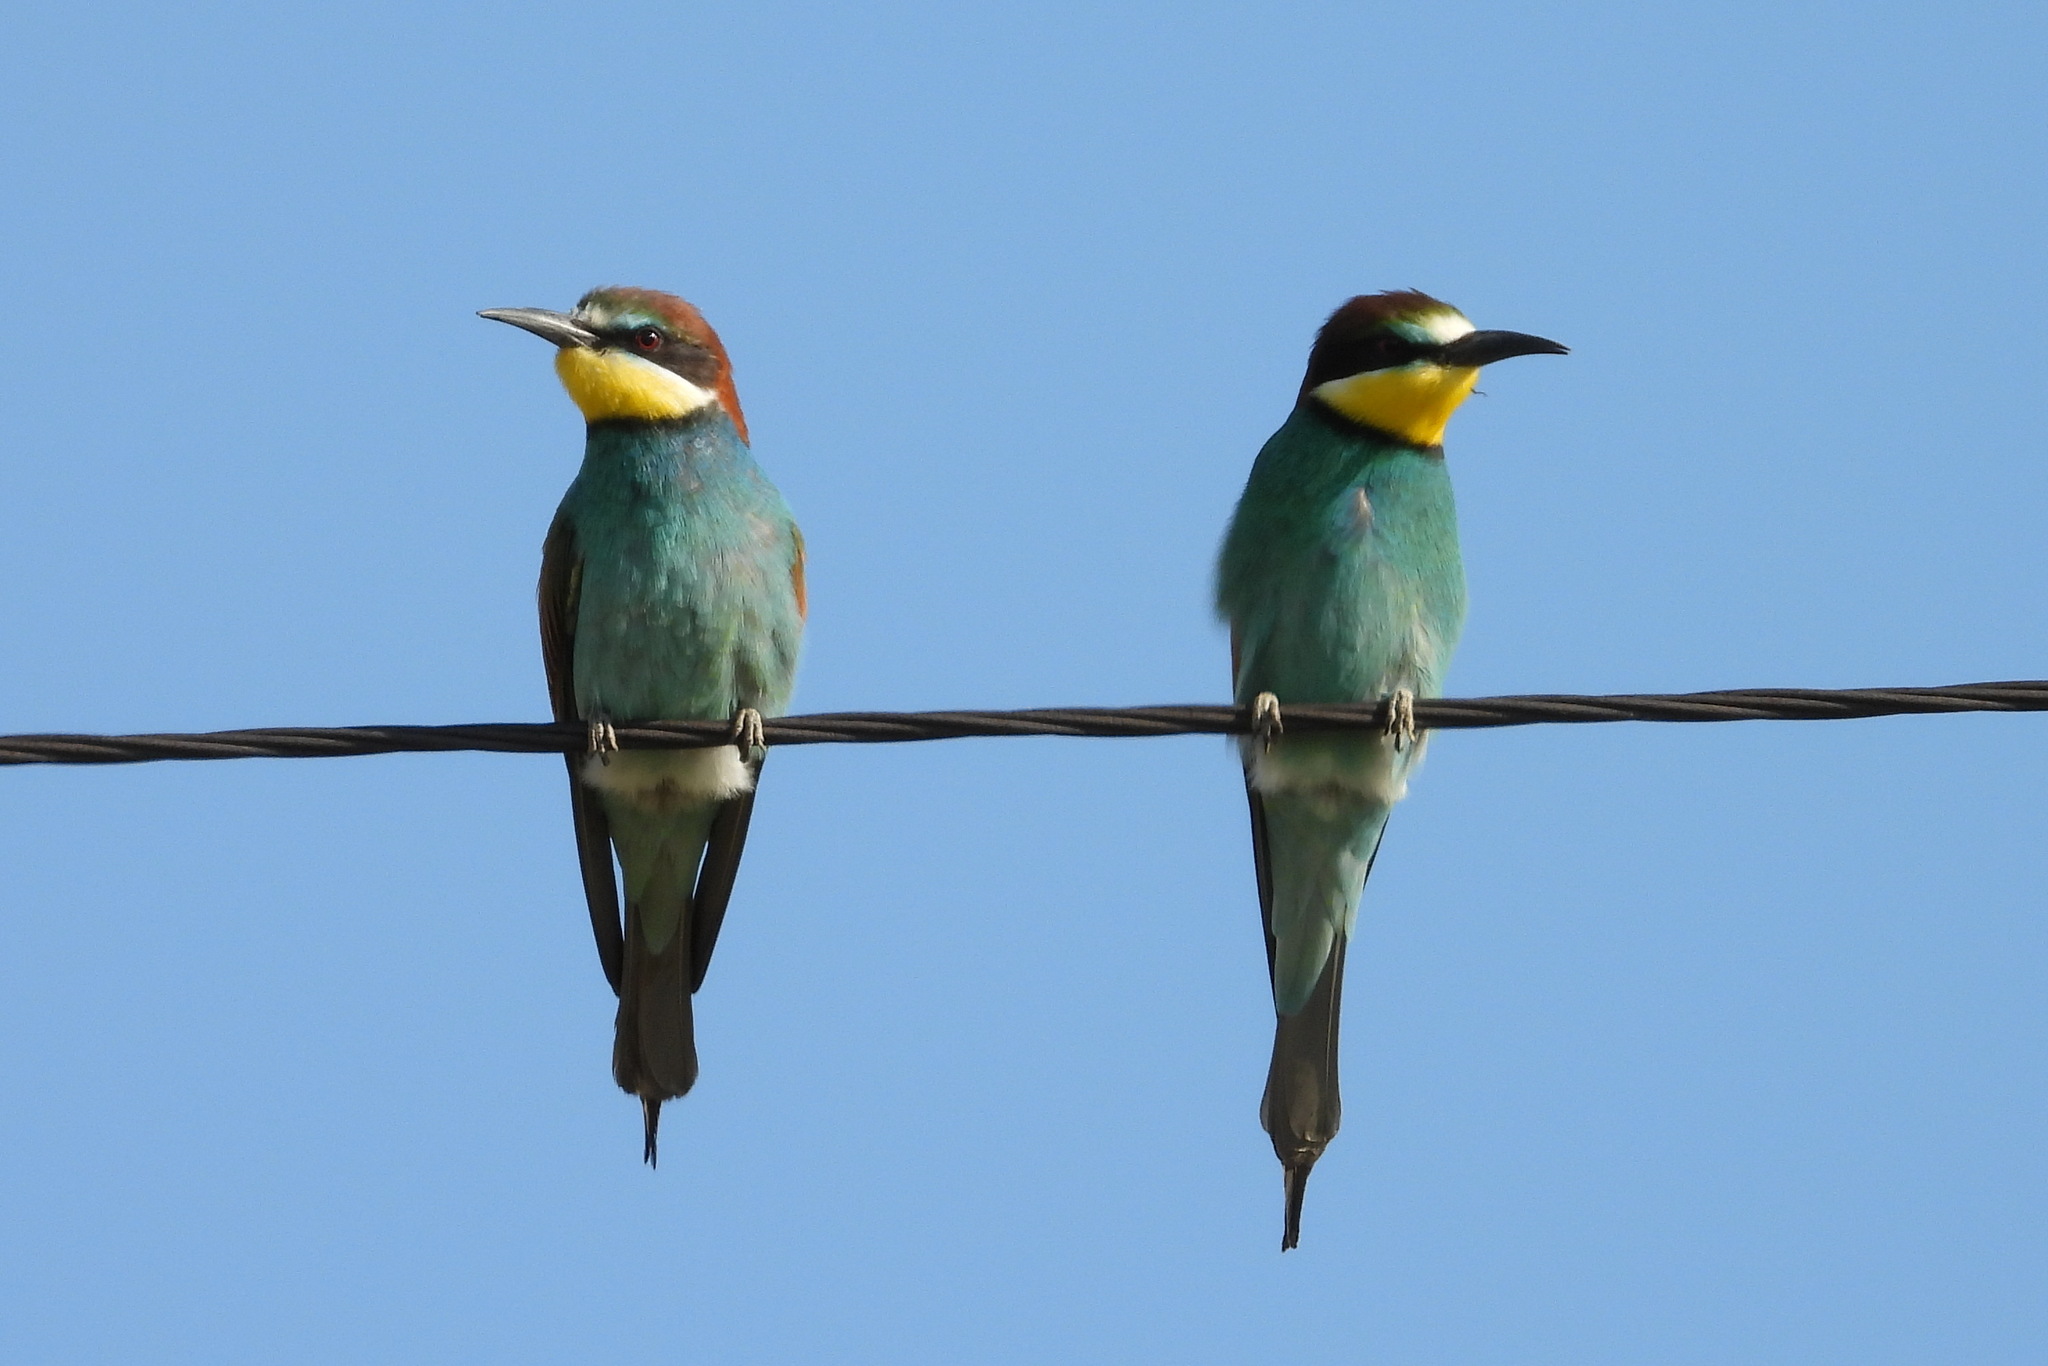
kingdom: Animalia
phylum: Chordata
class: Aves
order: Coraciiformes
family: Meropidae
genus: Merops
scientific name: Merops apiaster
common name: European bee-eater
